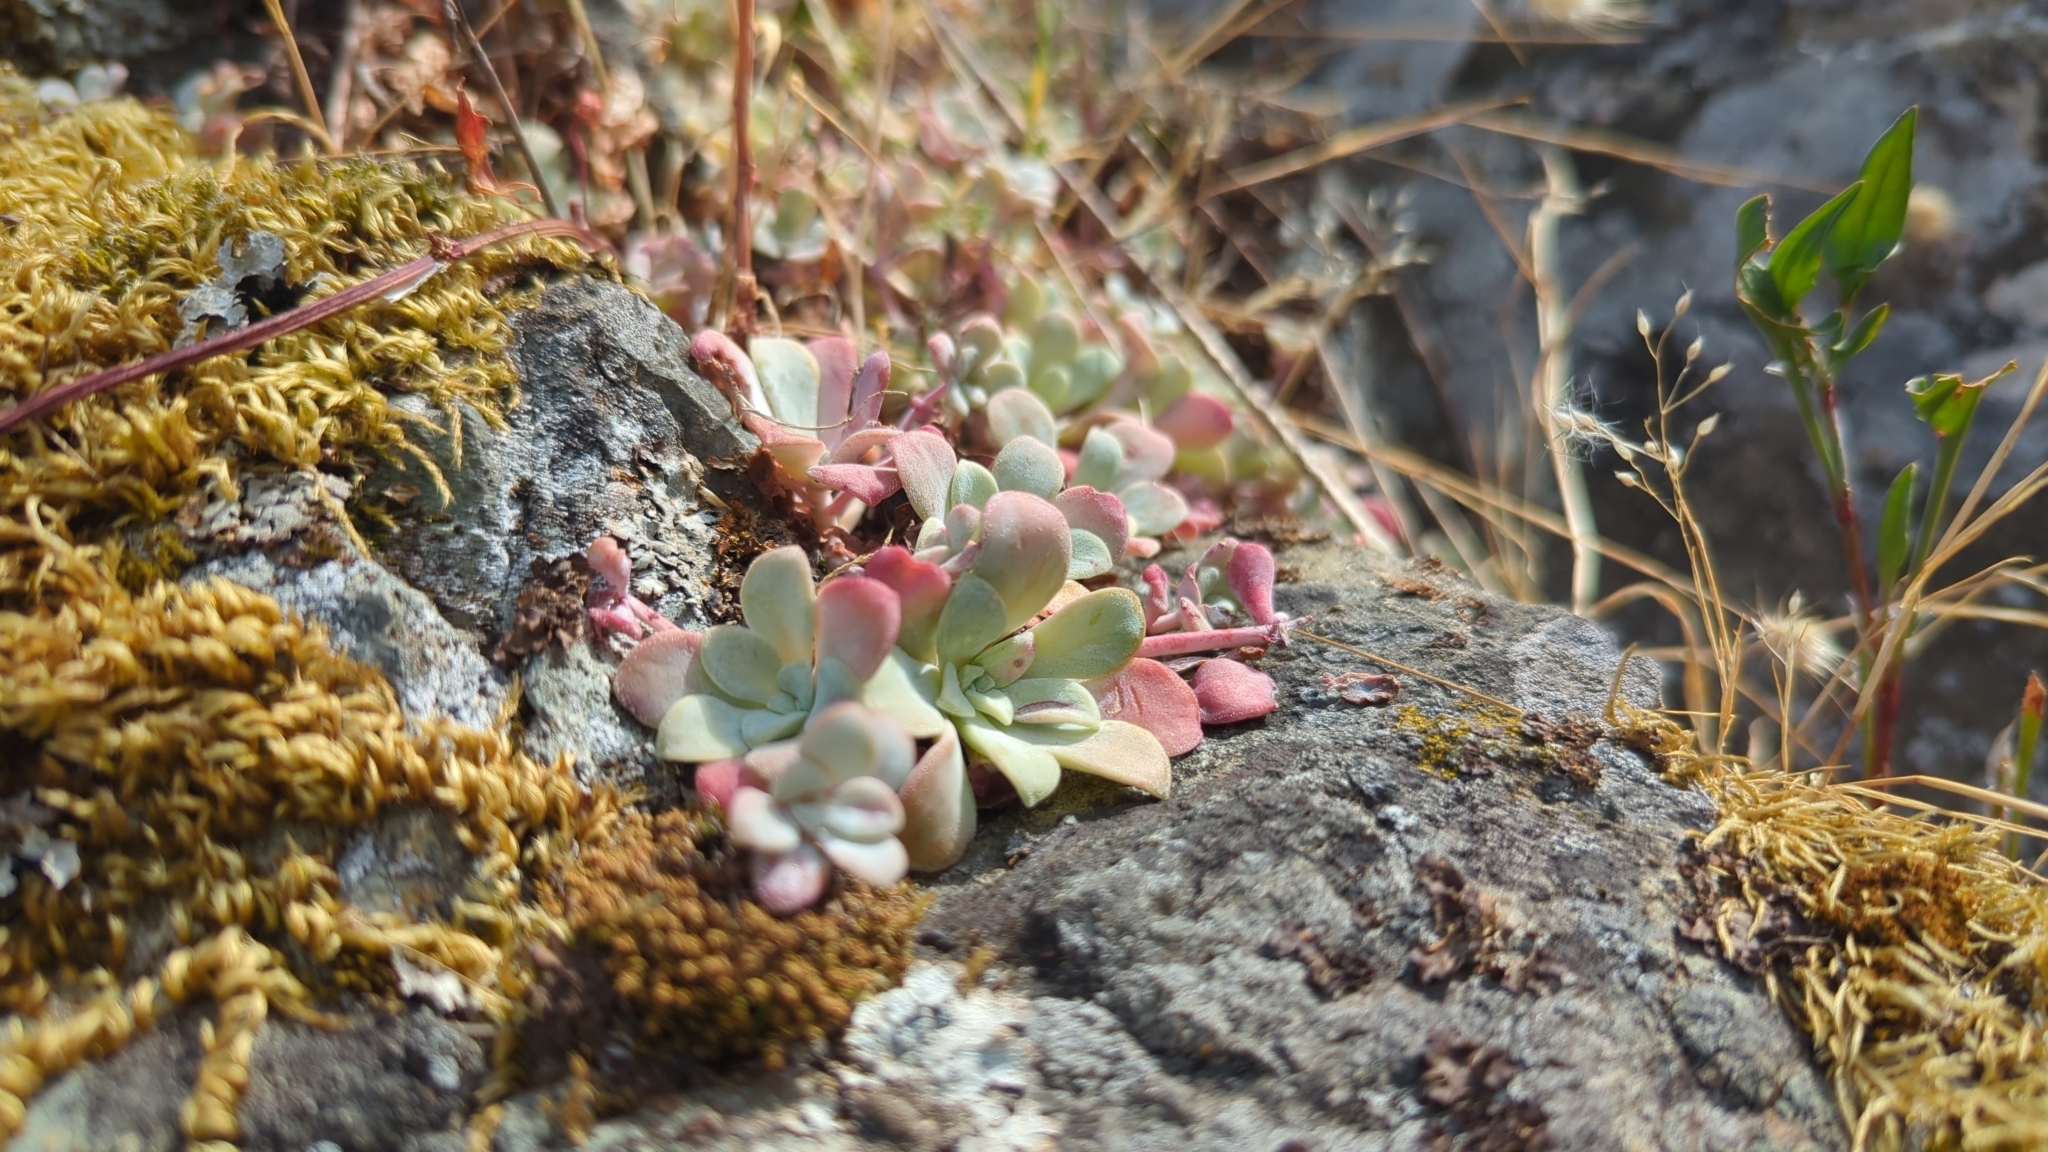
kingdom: Plantae
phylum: Tracheophyta
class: Magnoliopsida
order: Saxifragales
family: Crassulaceae
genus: Sedum
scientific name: Sedum spathulifolium
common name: Colorado stonecrop
